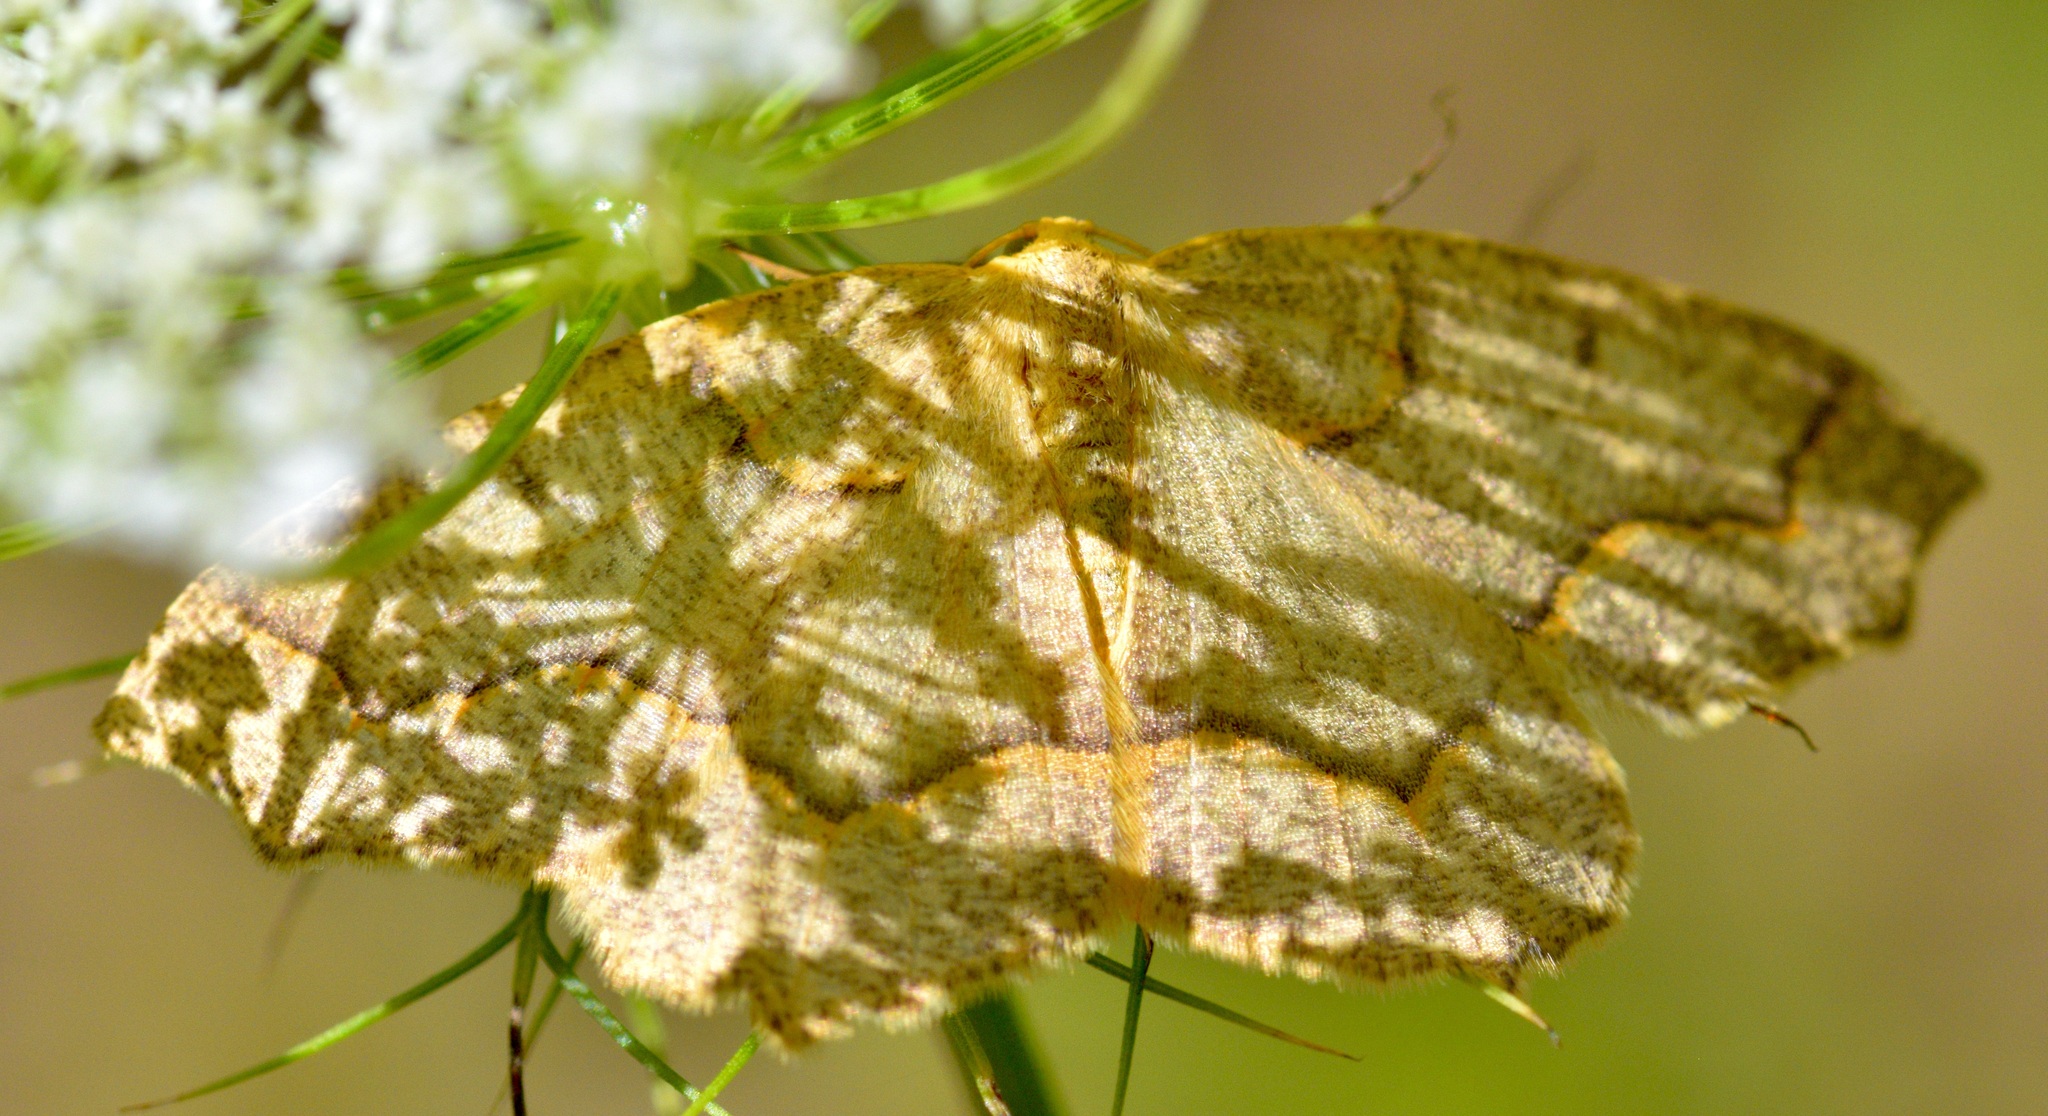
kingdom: Animalia
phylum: Arthropoda
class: Insecta
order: Lepidoptera
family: Geometridae
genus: Lambdina
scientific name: Lambdina fiscellaria
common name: Hemlock looper
